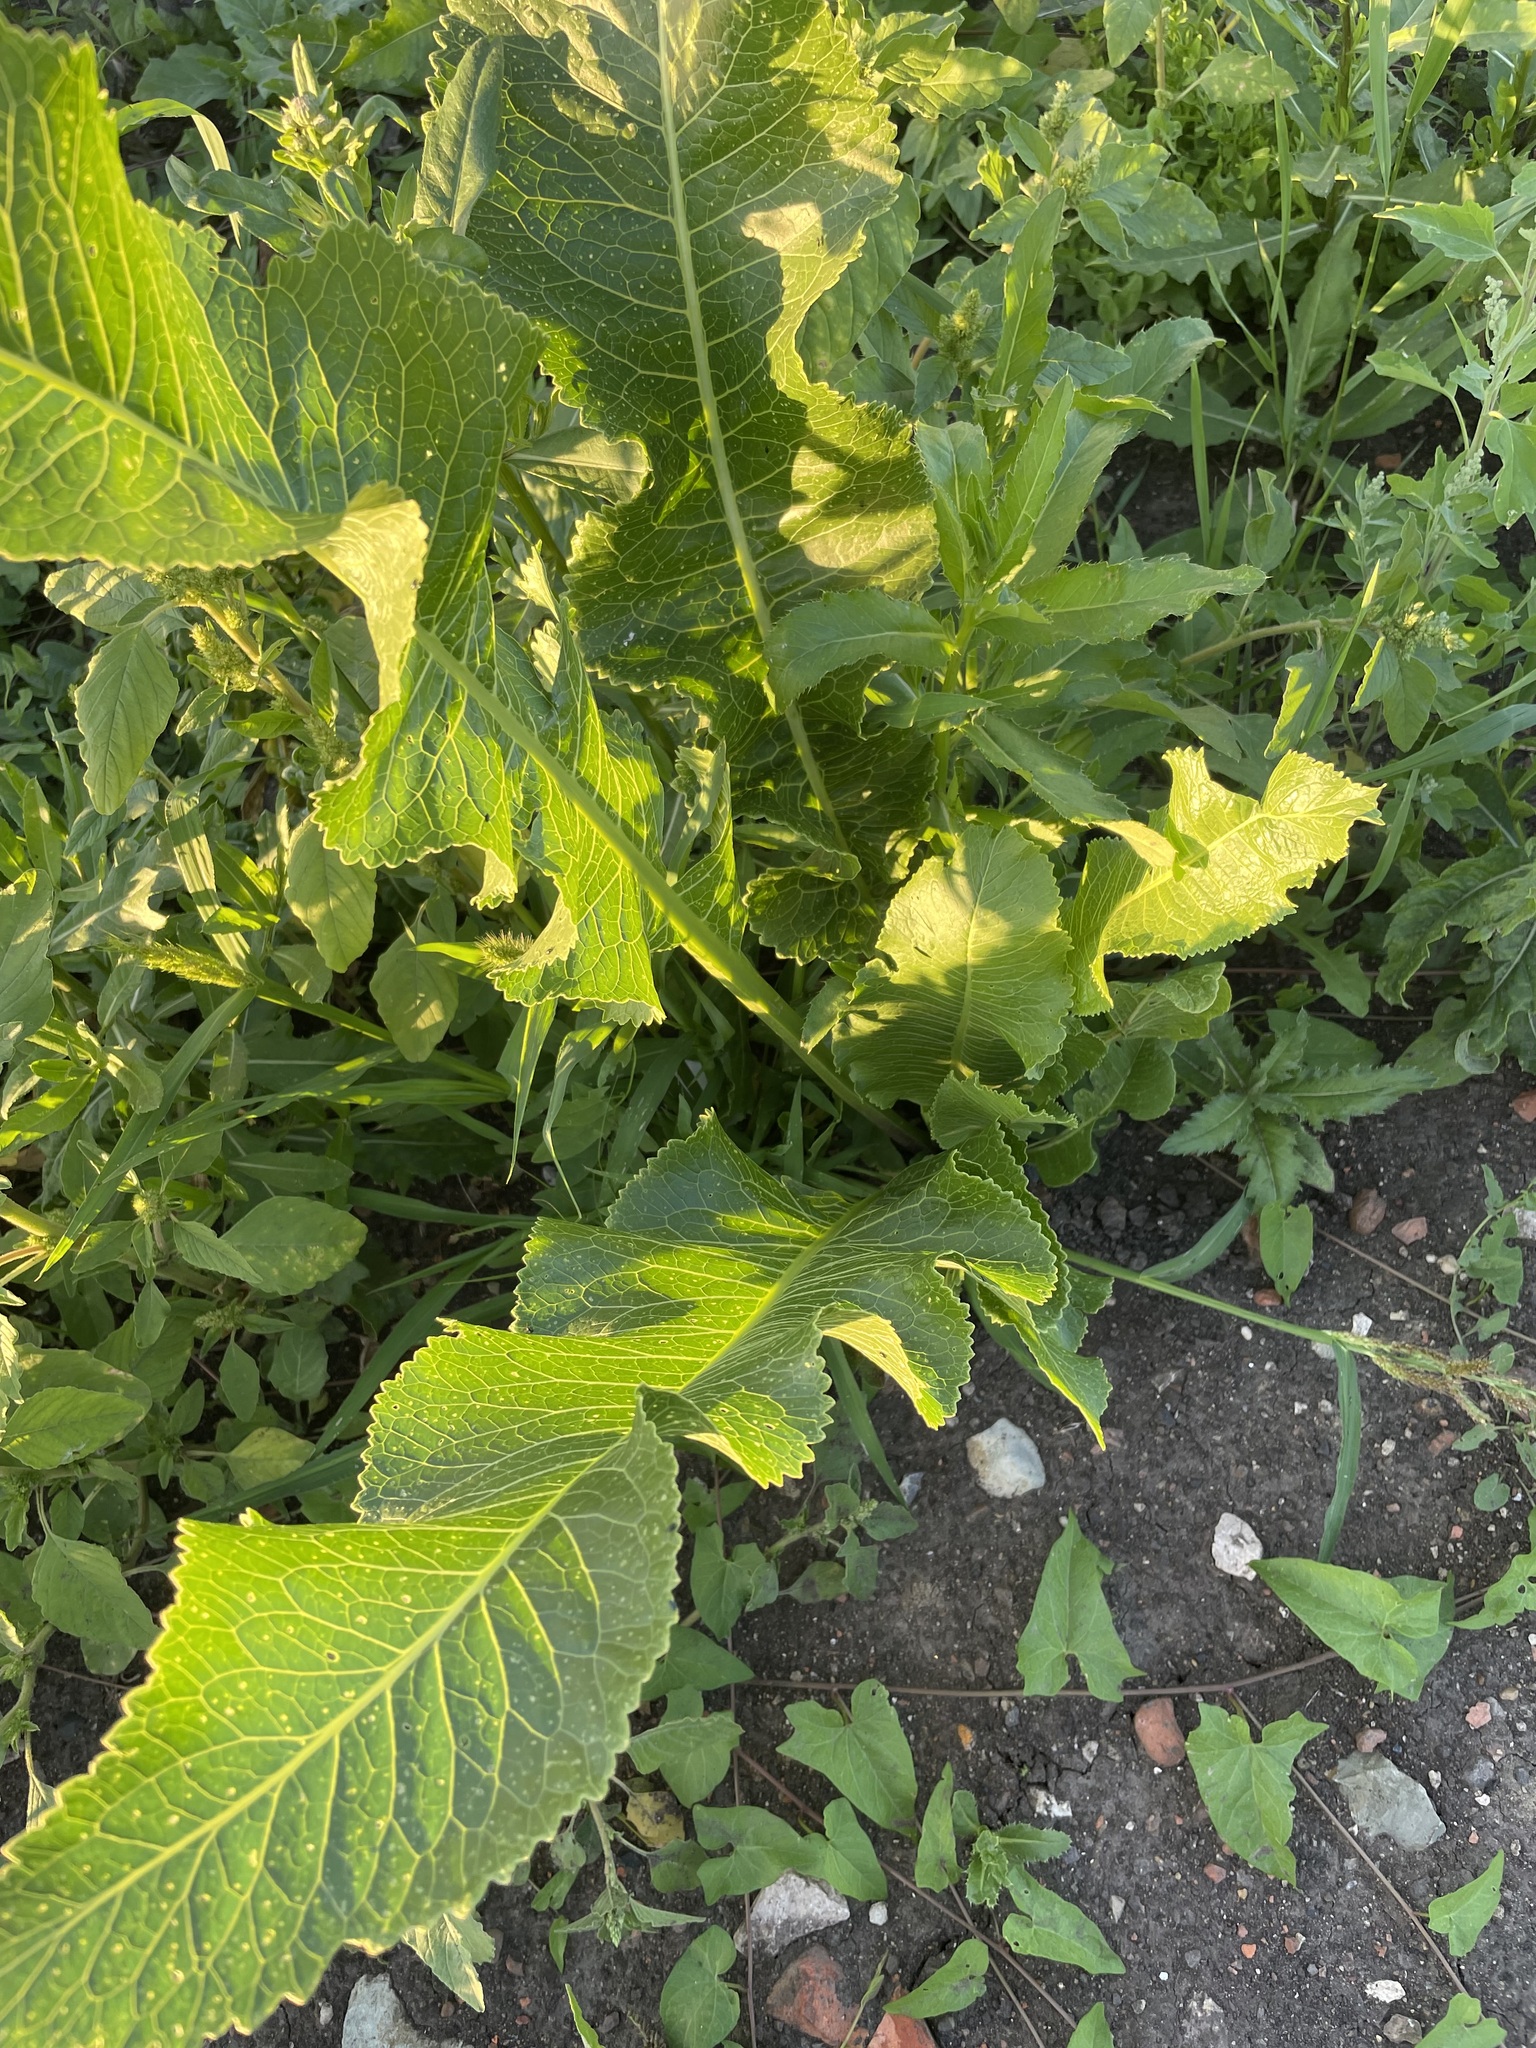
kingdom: Plantae
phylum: Tracheophyta
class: Magnoliopsida
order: Brassicales
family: Brassicaceae
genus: Armoracia
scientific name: Armoracia rusticana
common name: Horseradish
